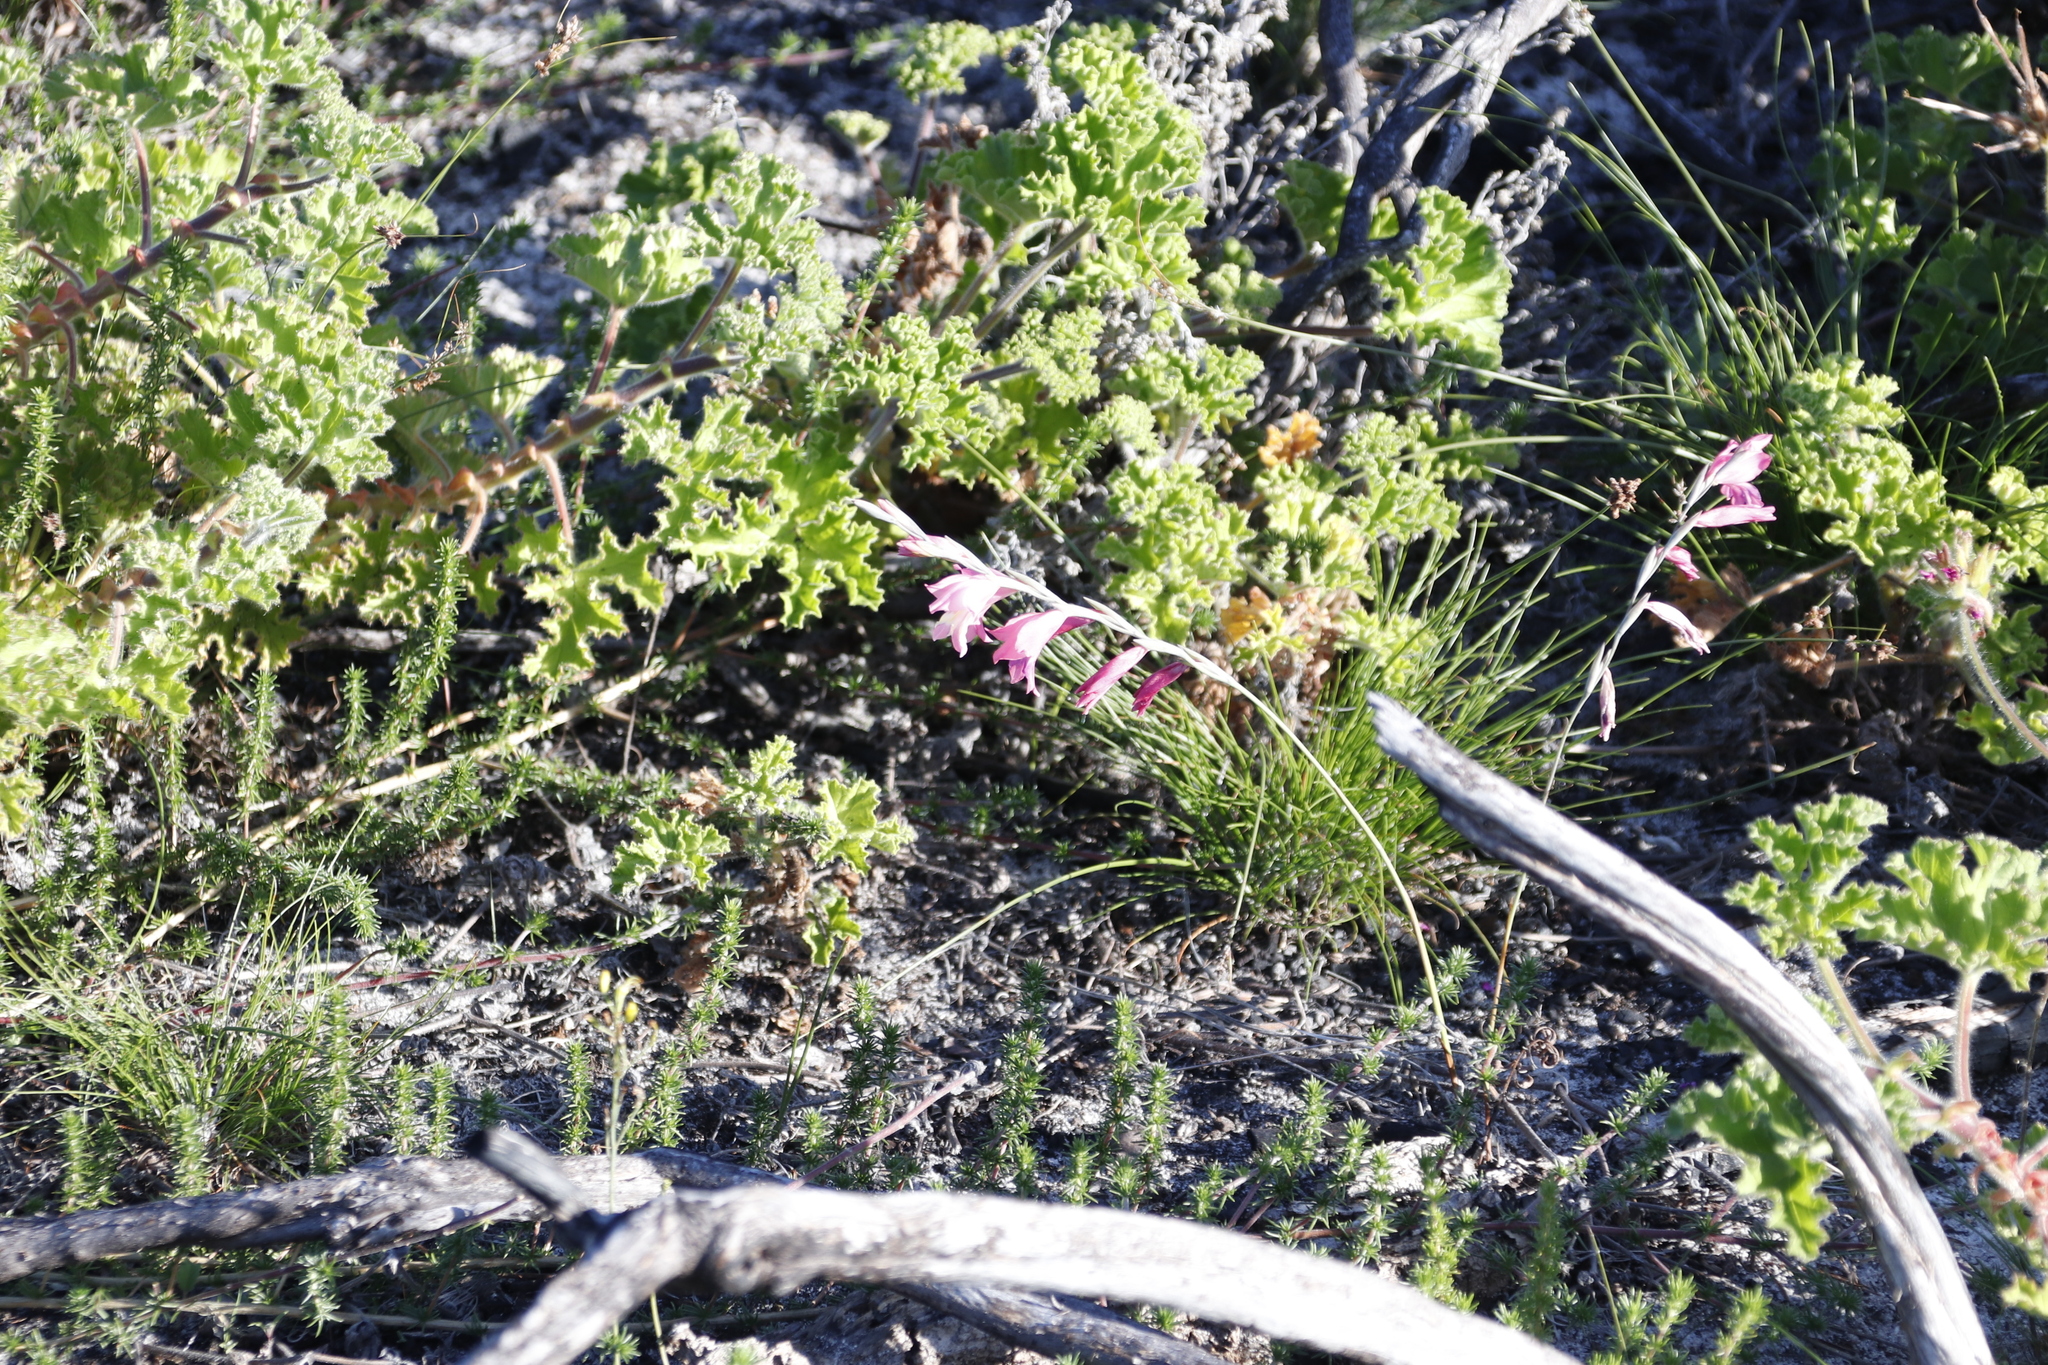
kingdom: Plantae
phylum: Tracheophyta
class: Liliopsida
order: Asparagales
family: Iridaceae
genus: Gladiolus
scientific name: Gladiolus brevifolius
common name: March pypie
